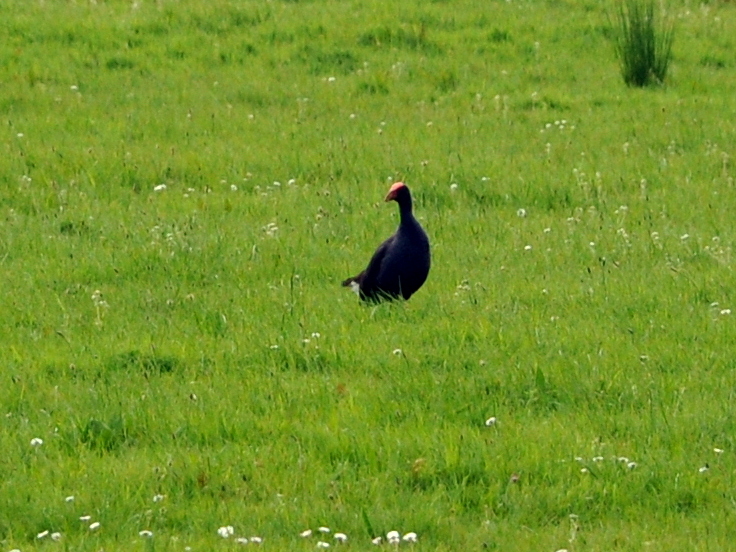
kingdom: Animalia
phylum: Chordata
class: Aves
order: Gruiformes
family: Rallidae
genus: Porphyrio
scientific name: Porphyrio melanotus
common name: Australasian swamphen
